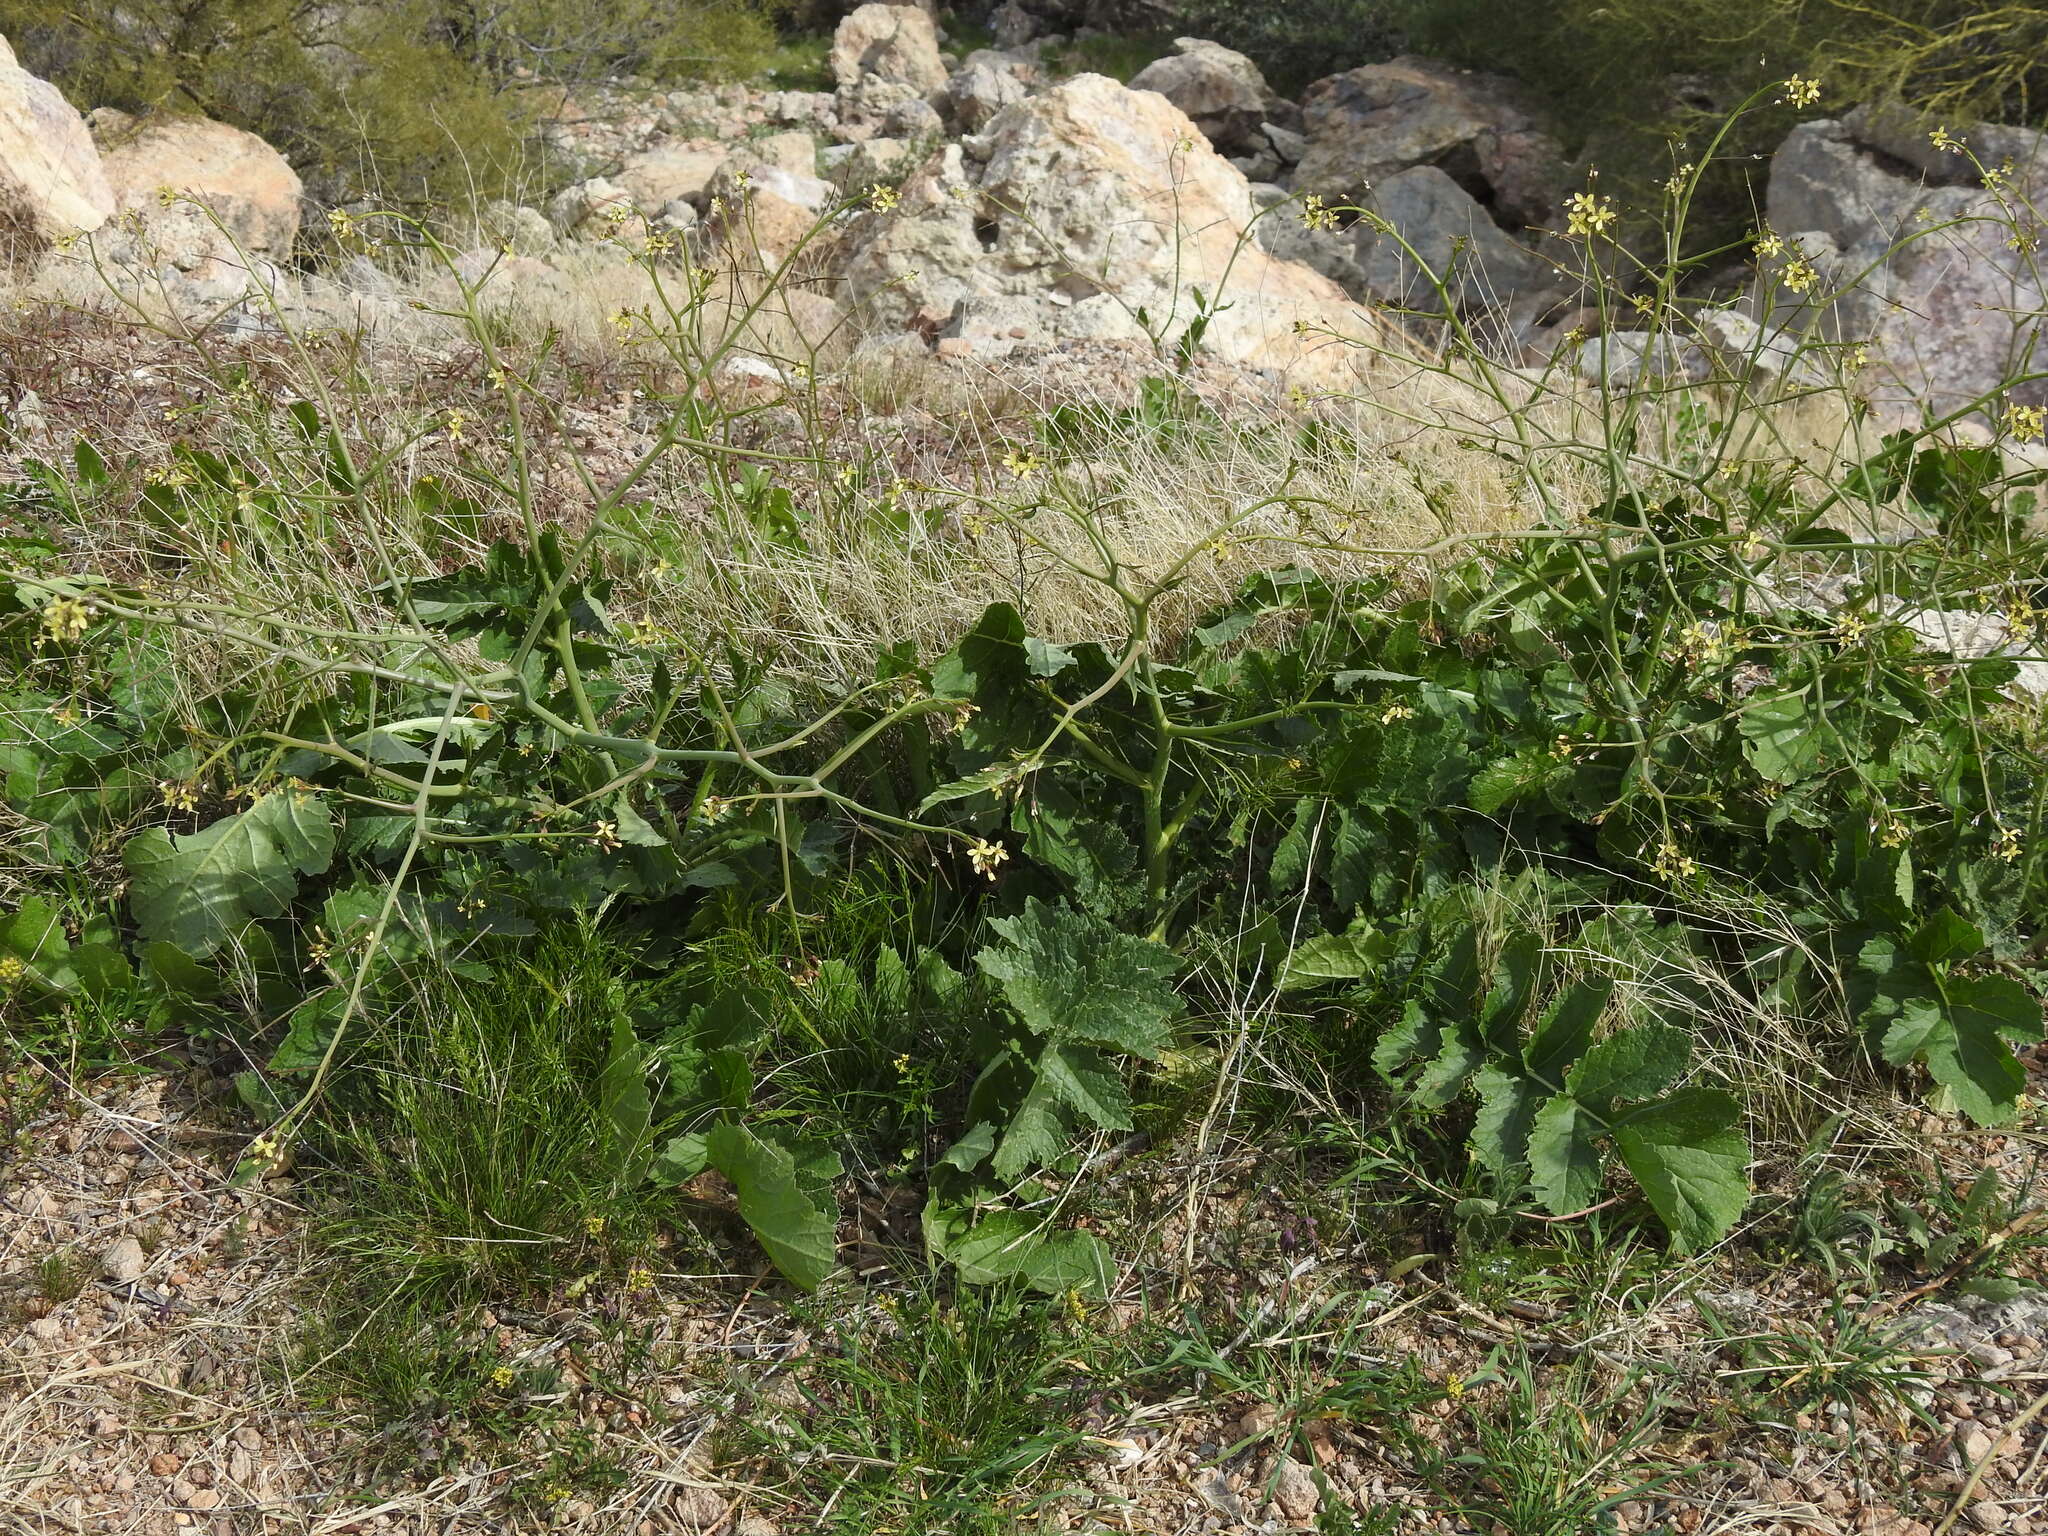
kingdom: Plantae
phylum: Tracheophyta
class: Magnoliopsida
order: Brassicales
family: Brassicaceae
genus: Brassica
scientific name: Brassica tournefortii
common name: Pale cabbage
